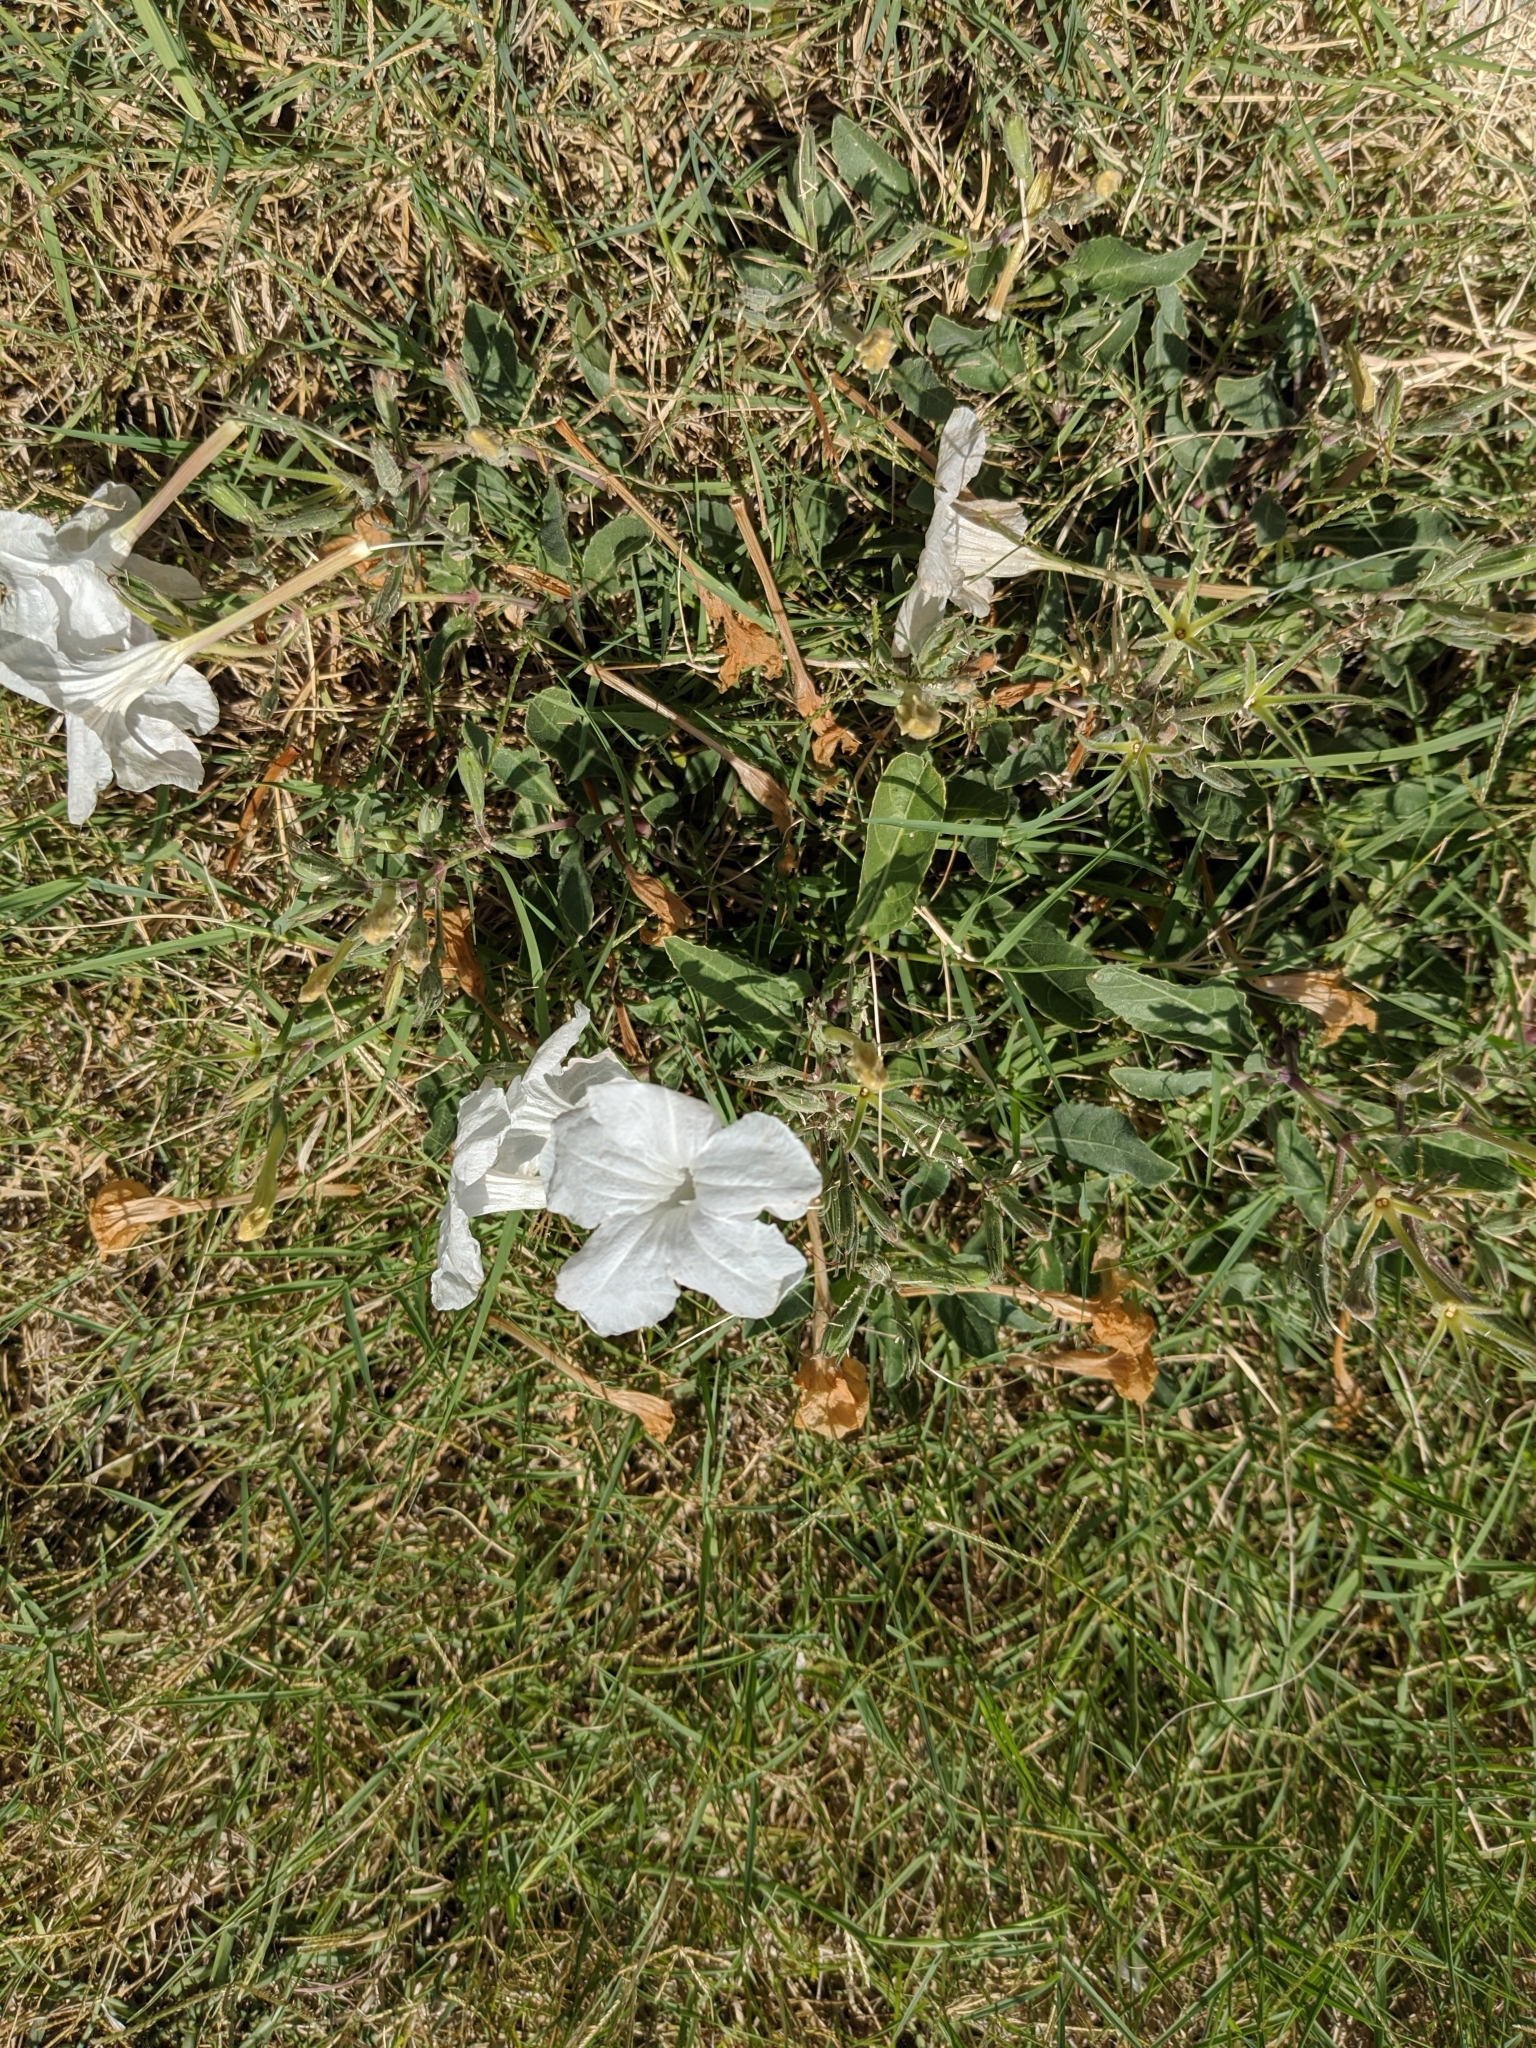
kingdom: Plantae
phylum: Tracheophyta
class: Magnoliopsida
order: Lamiales
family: Acanthaceae
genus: Ruellia
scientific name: Ruellia metziae
